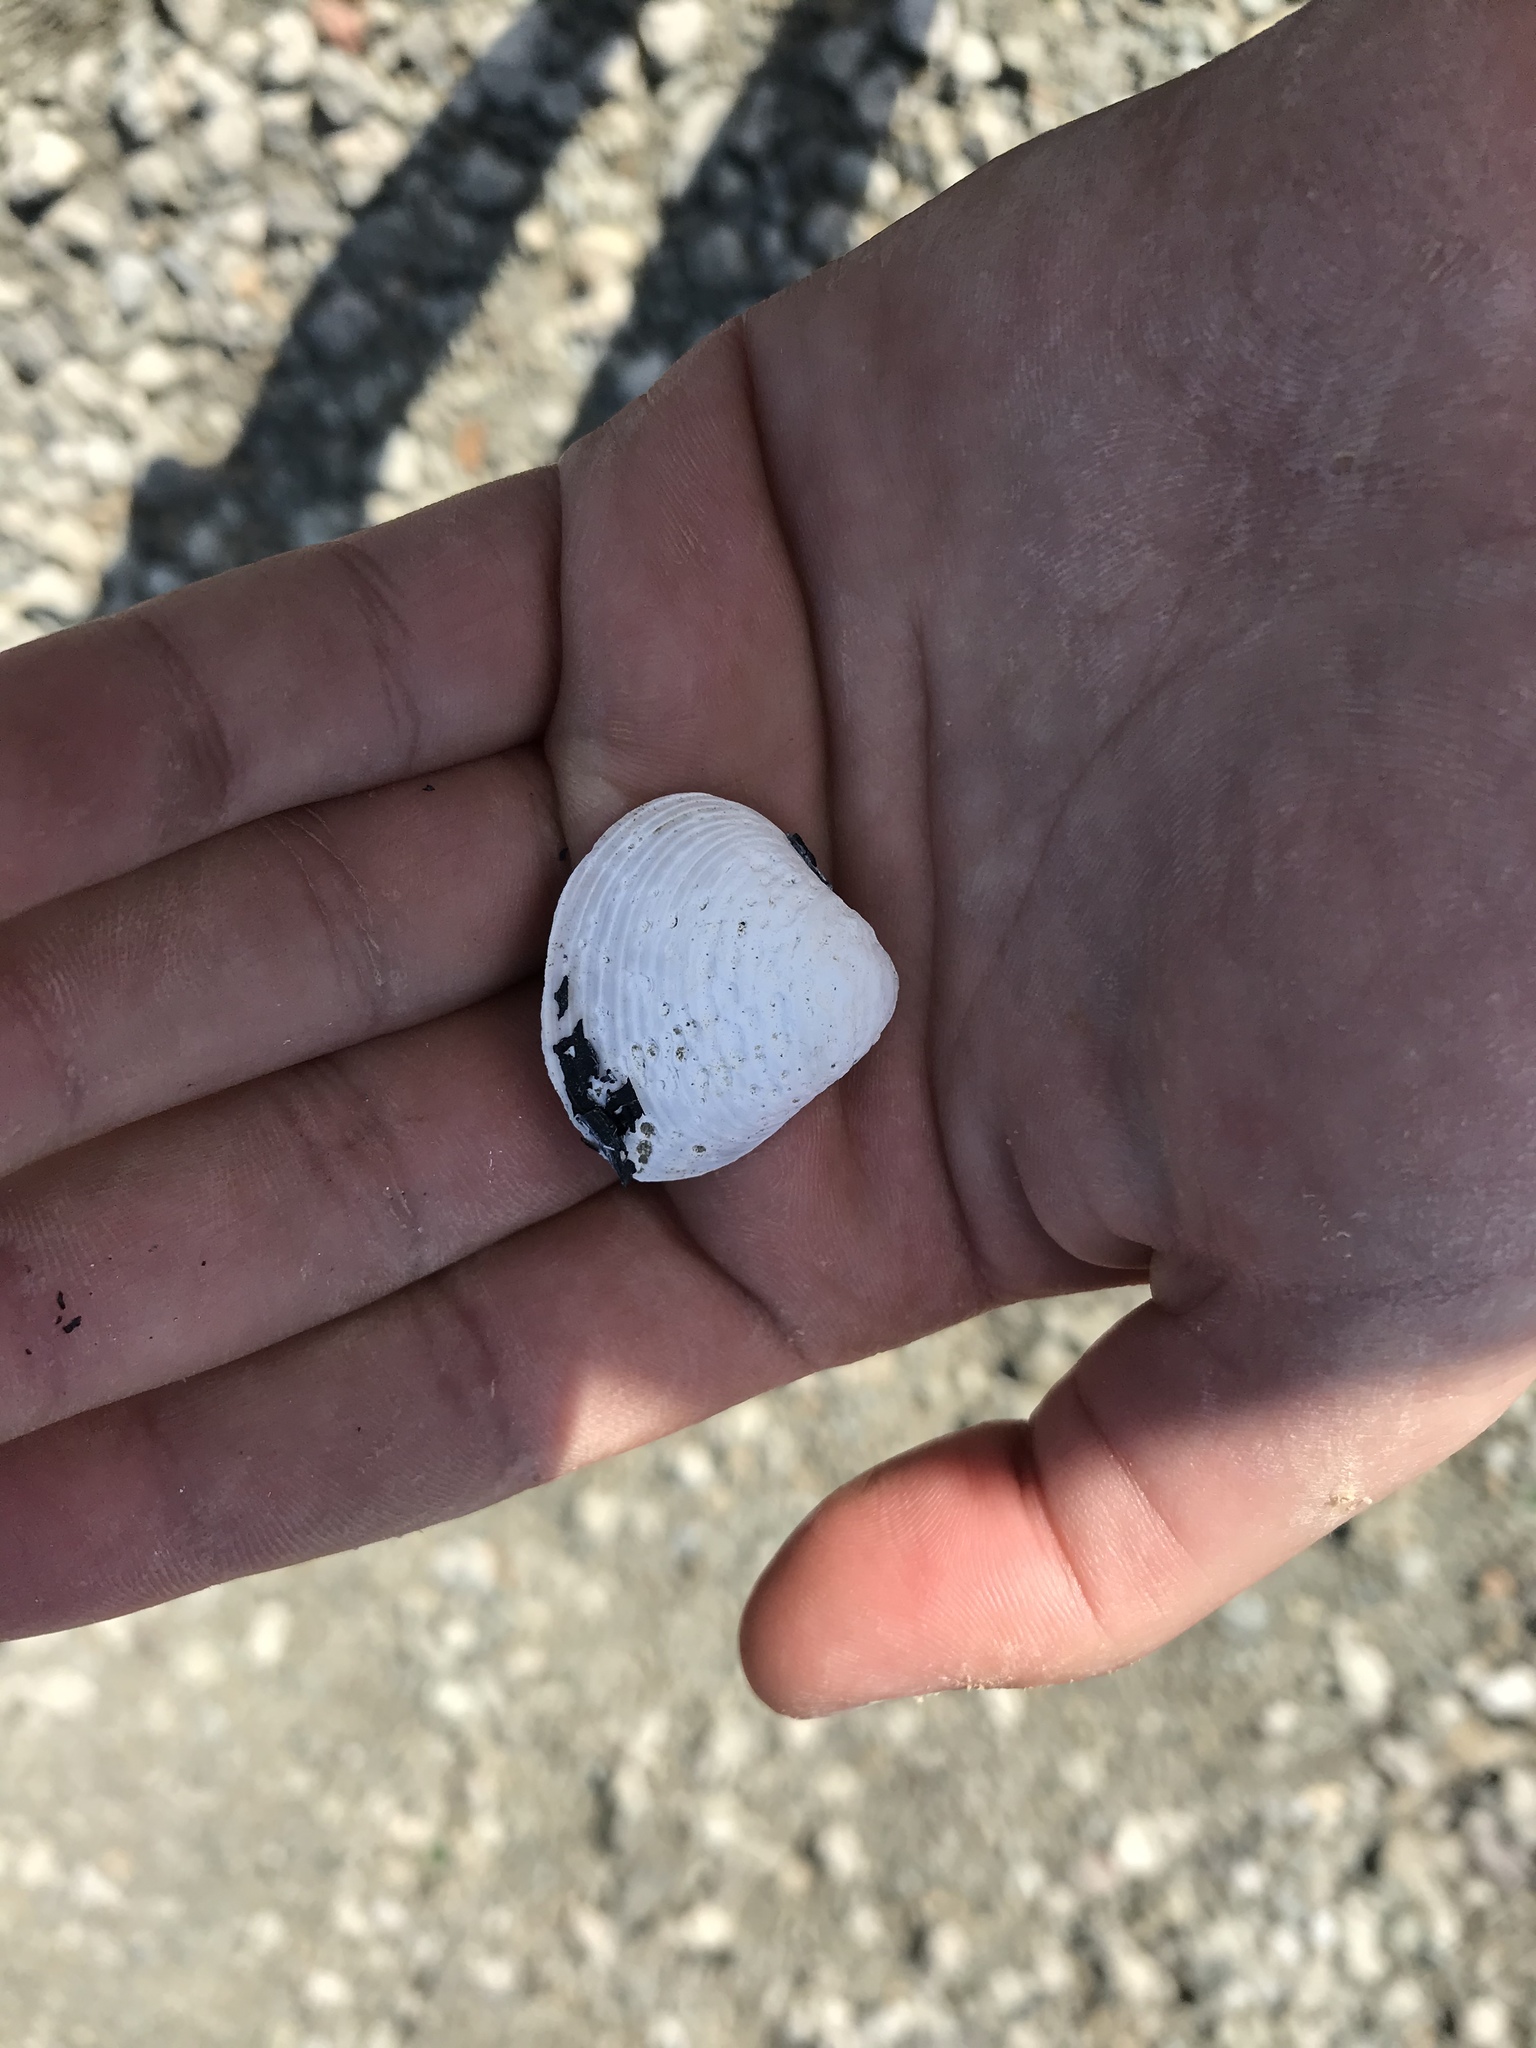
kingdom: Animalia
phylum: Mollusca
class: Bivalvia
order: Venerida
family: Cyrenidae
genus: Corbicula
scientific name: Corbicula fluminea
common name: Asian clam
